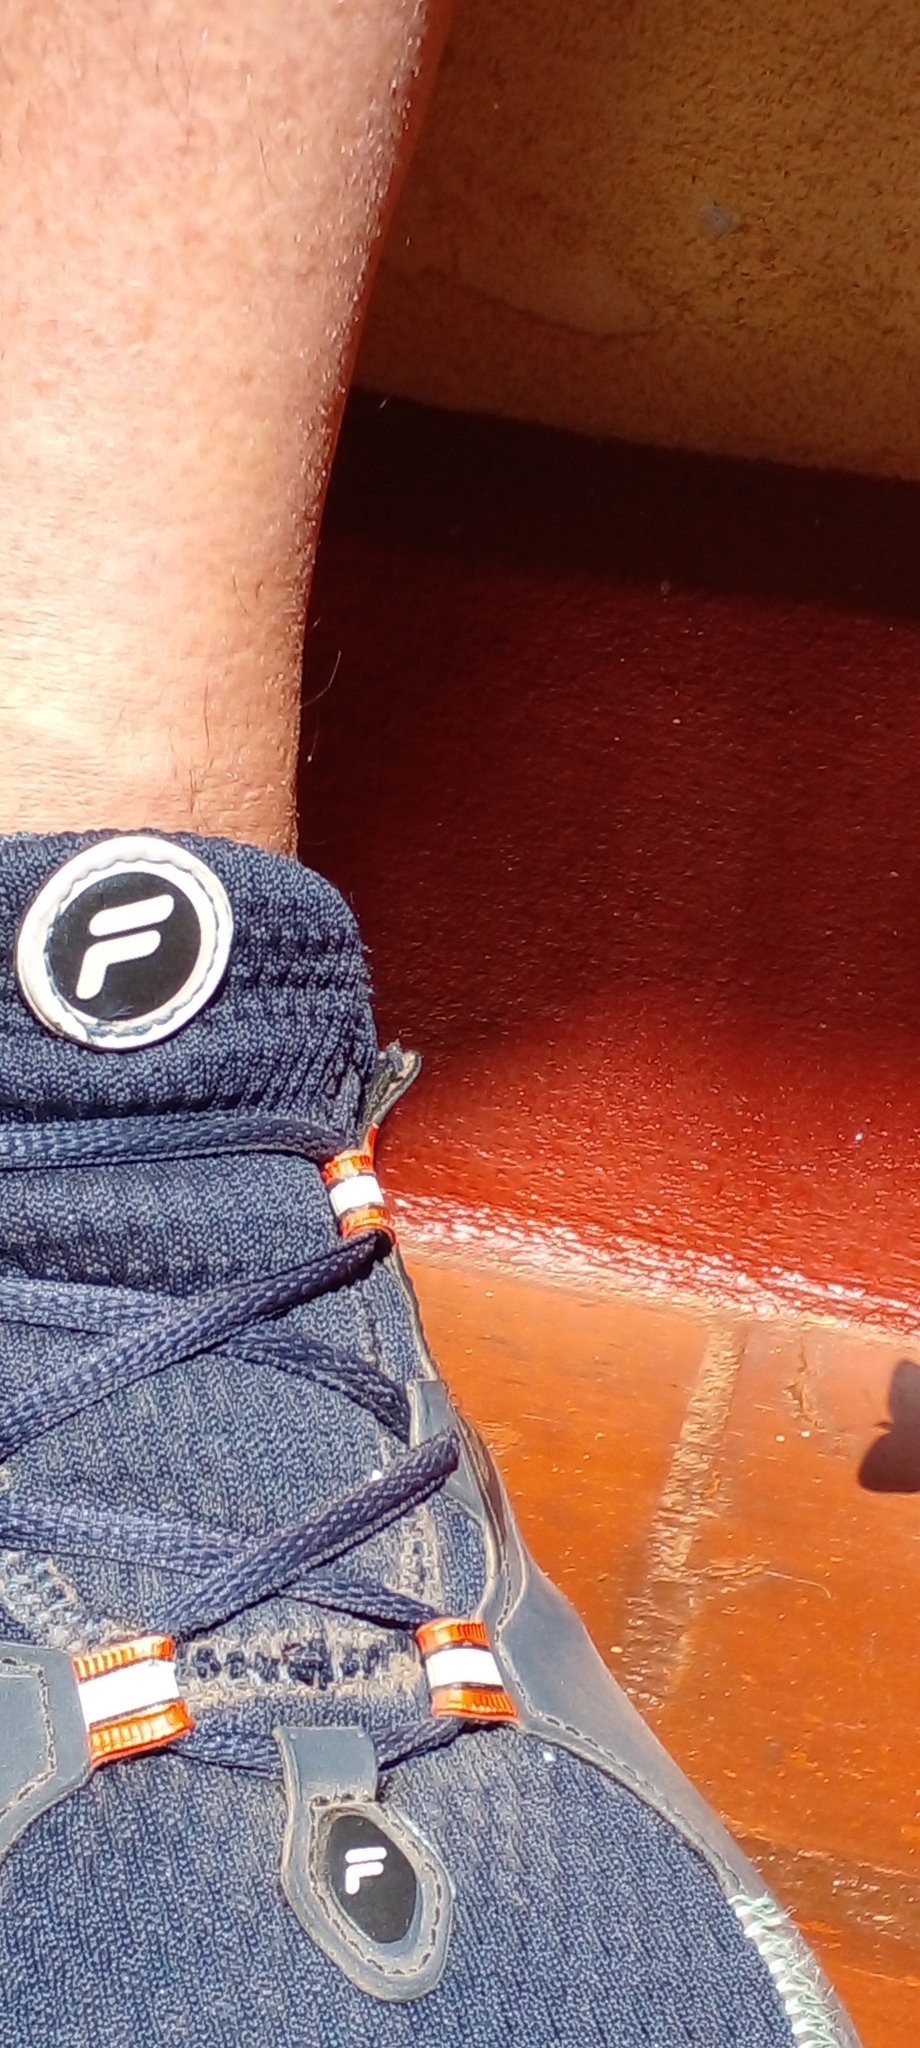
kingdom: Animalia
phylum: Arthropoda
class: Insecta
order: Lepidoptera
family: Nymphalidae
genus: Dynamine
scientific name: Dynamine mylitta
